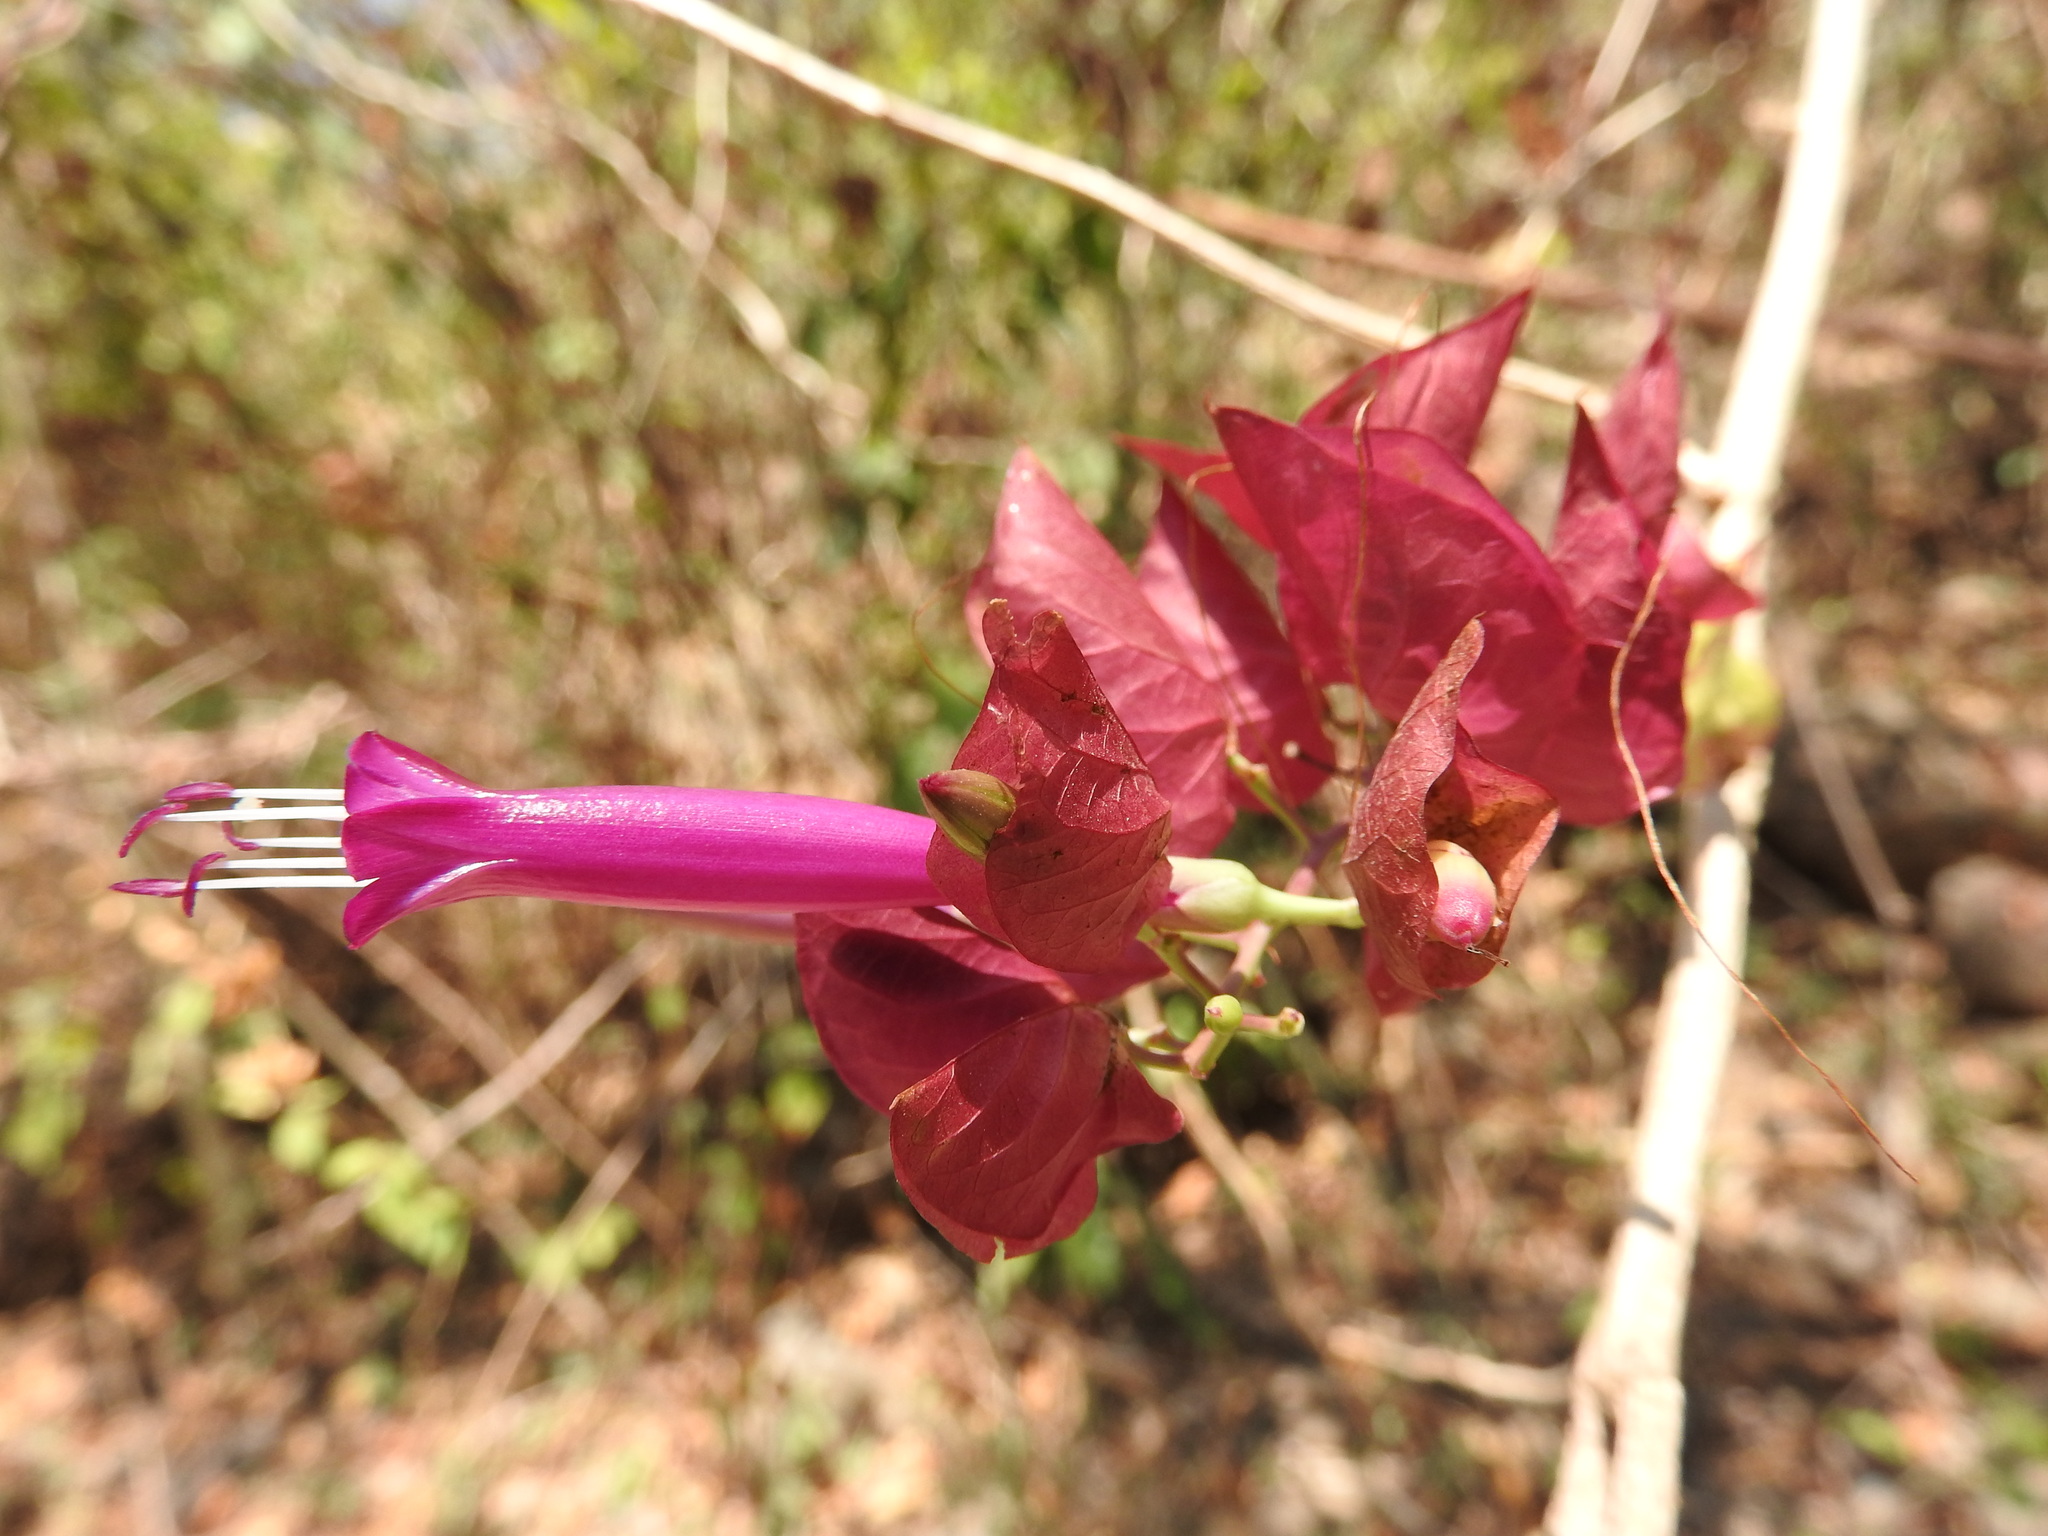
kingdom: Plantae
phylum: Tracheophyta
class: Magnoliopsida
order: Solanales
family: Convolvulaceae
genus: Ipomoea
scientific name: Ipomoea bracteata
